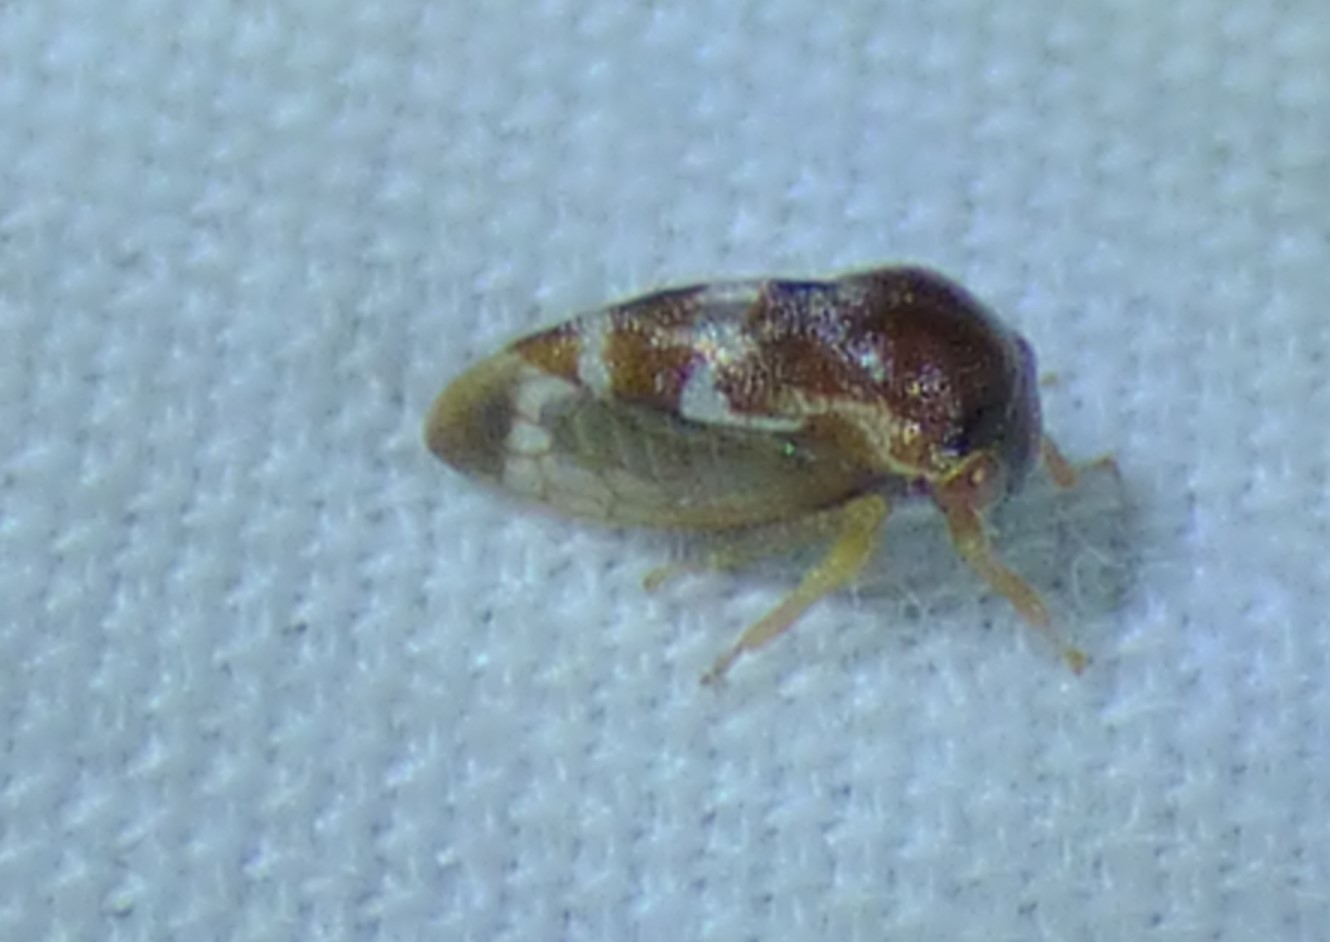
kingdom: Animalia
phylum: Arthropoda
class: Insecta
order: Hemiptera
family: Membracidae
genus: Cyrtolobus
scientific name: Cyrtolobus togatus
